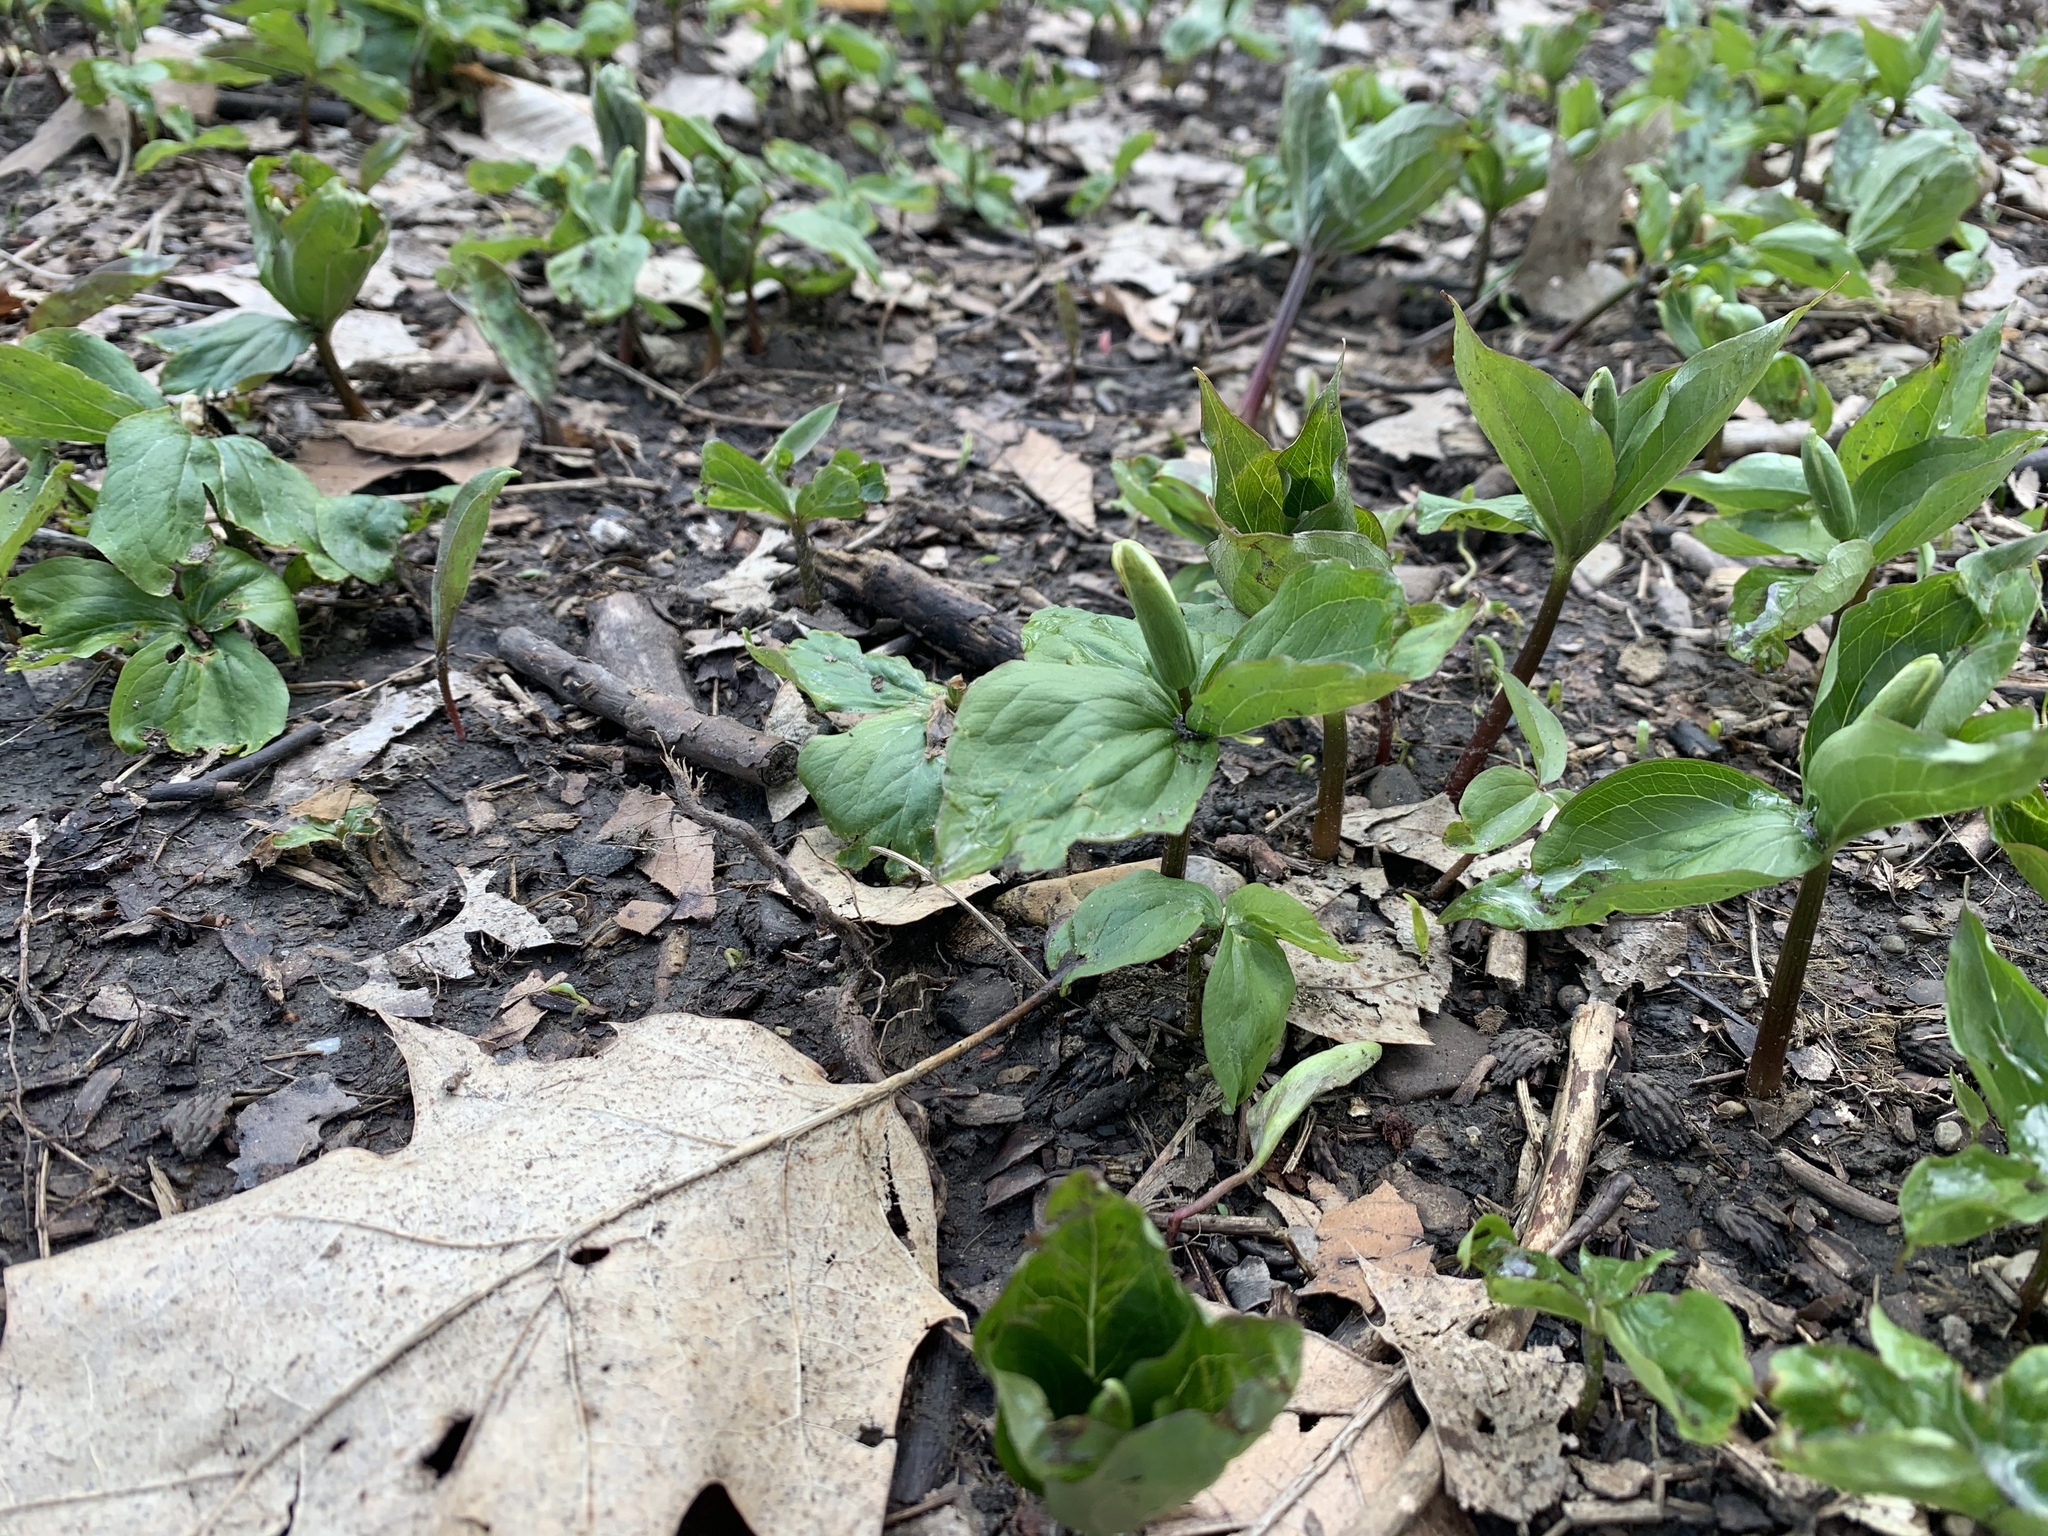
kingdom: Plantae
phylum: Tracheophyta
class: Liliopsida
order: Liliales
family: Melanthiaceae
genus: Trillium
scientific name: Trillium grandiflorum
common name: Great white trillium
